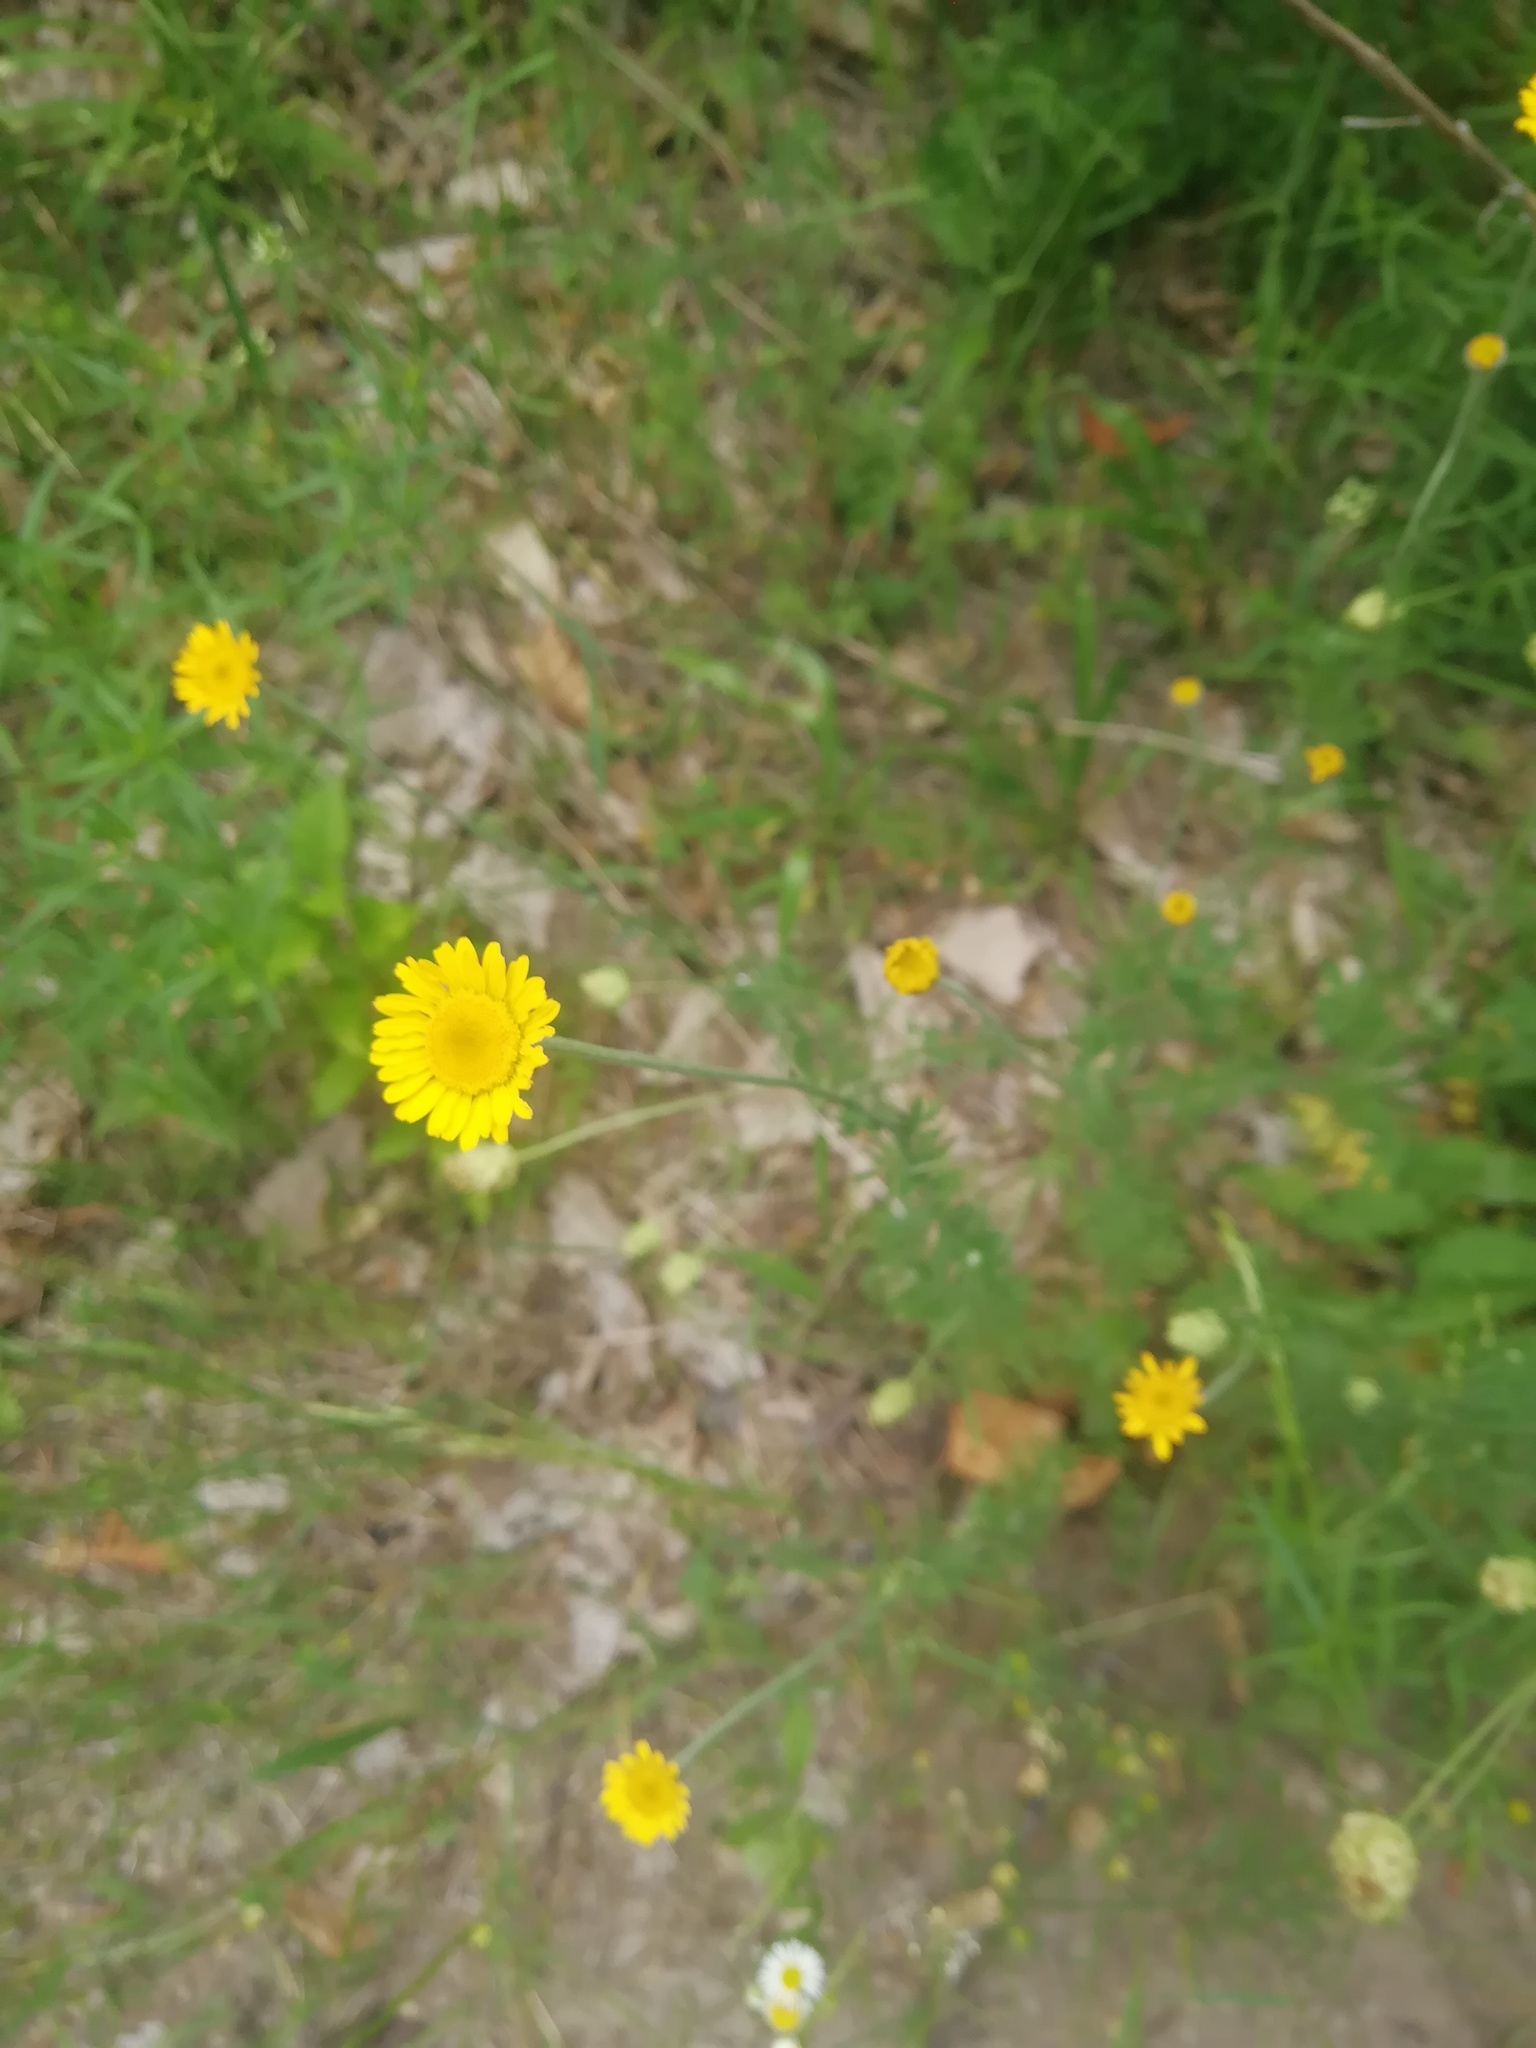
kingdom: Plantae
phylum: Tracheophyta
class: Magnoliopsida
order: Asterales
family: Asteraceae
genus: Cota
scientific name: Cota tinctoria
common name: Golden chamomile
